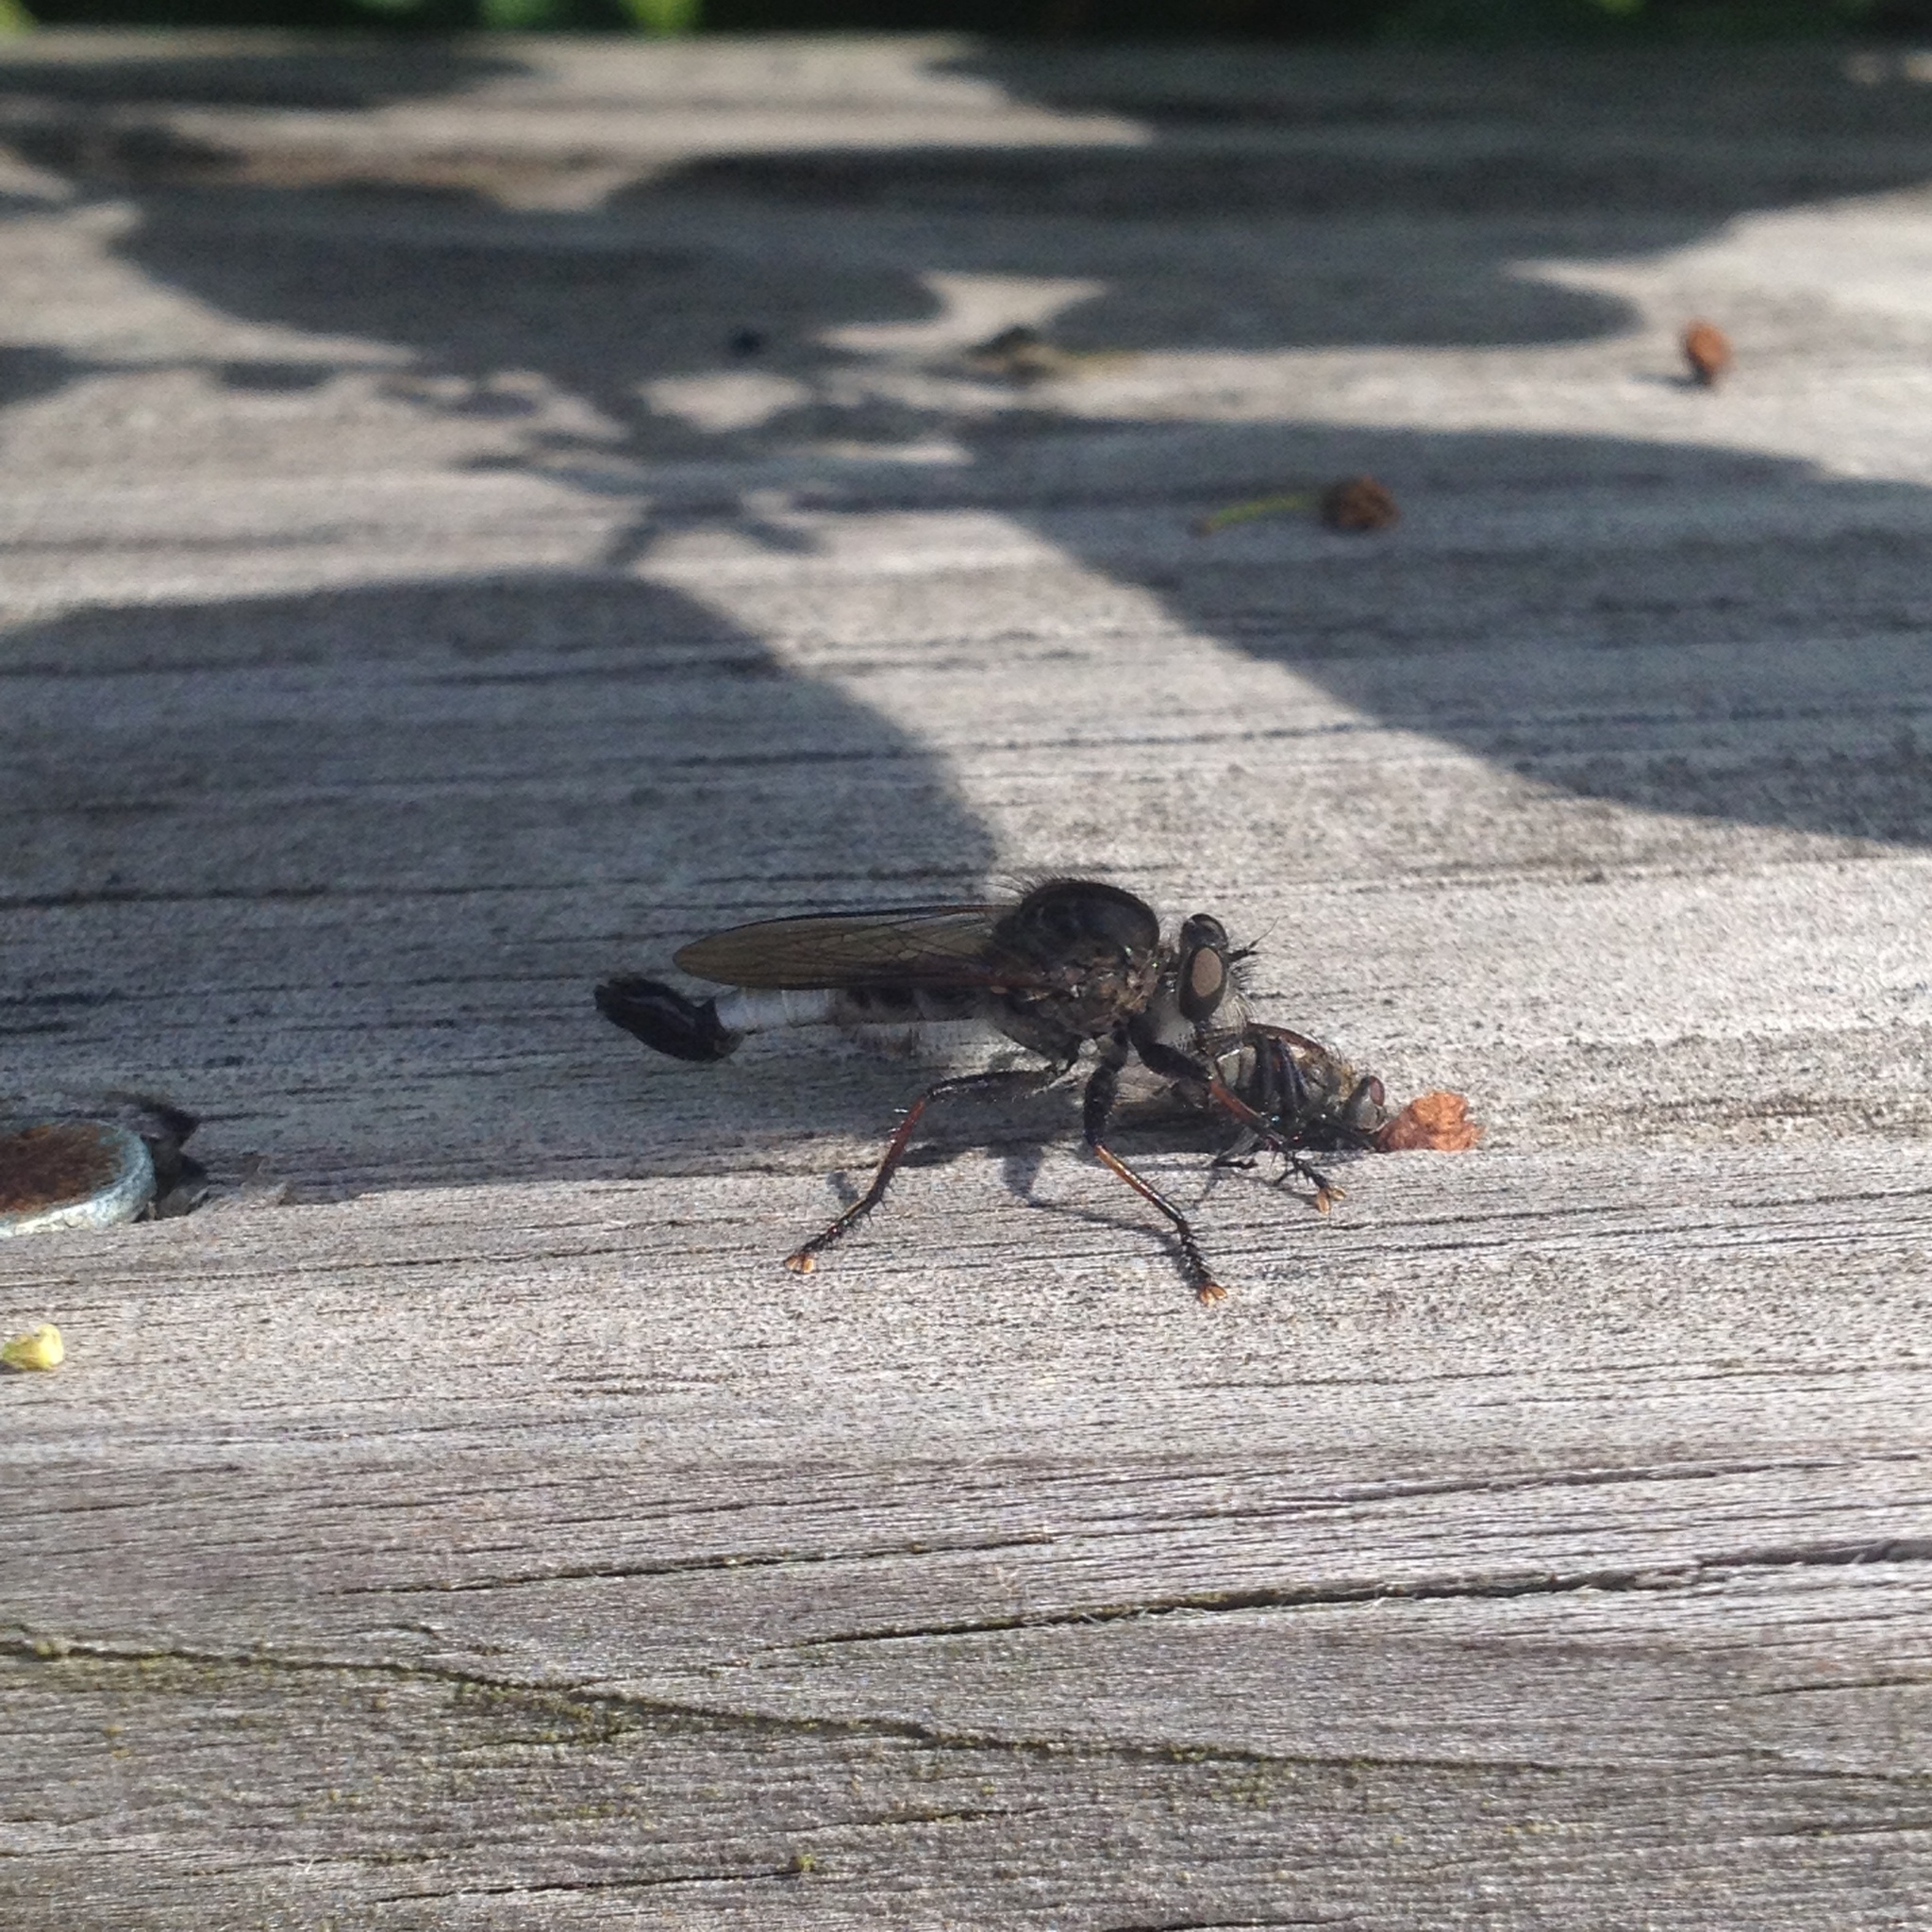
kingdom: Animalia
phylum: Arthropoda
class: Insecta
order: Diptera
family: Asilidae
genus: Efferia
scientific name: Efferia aestuans
